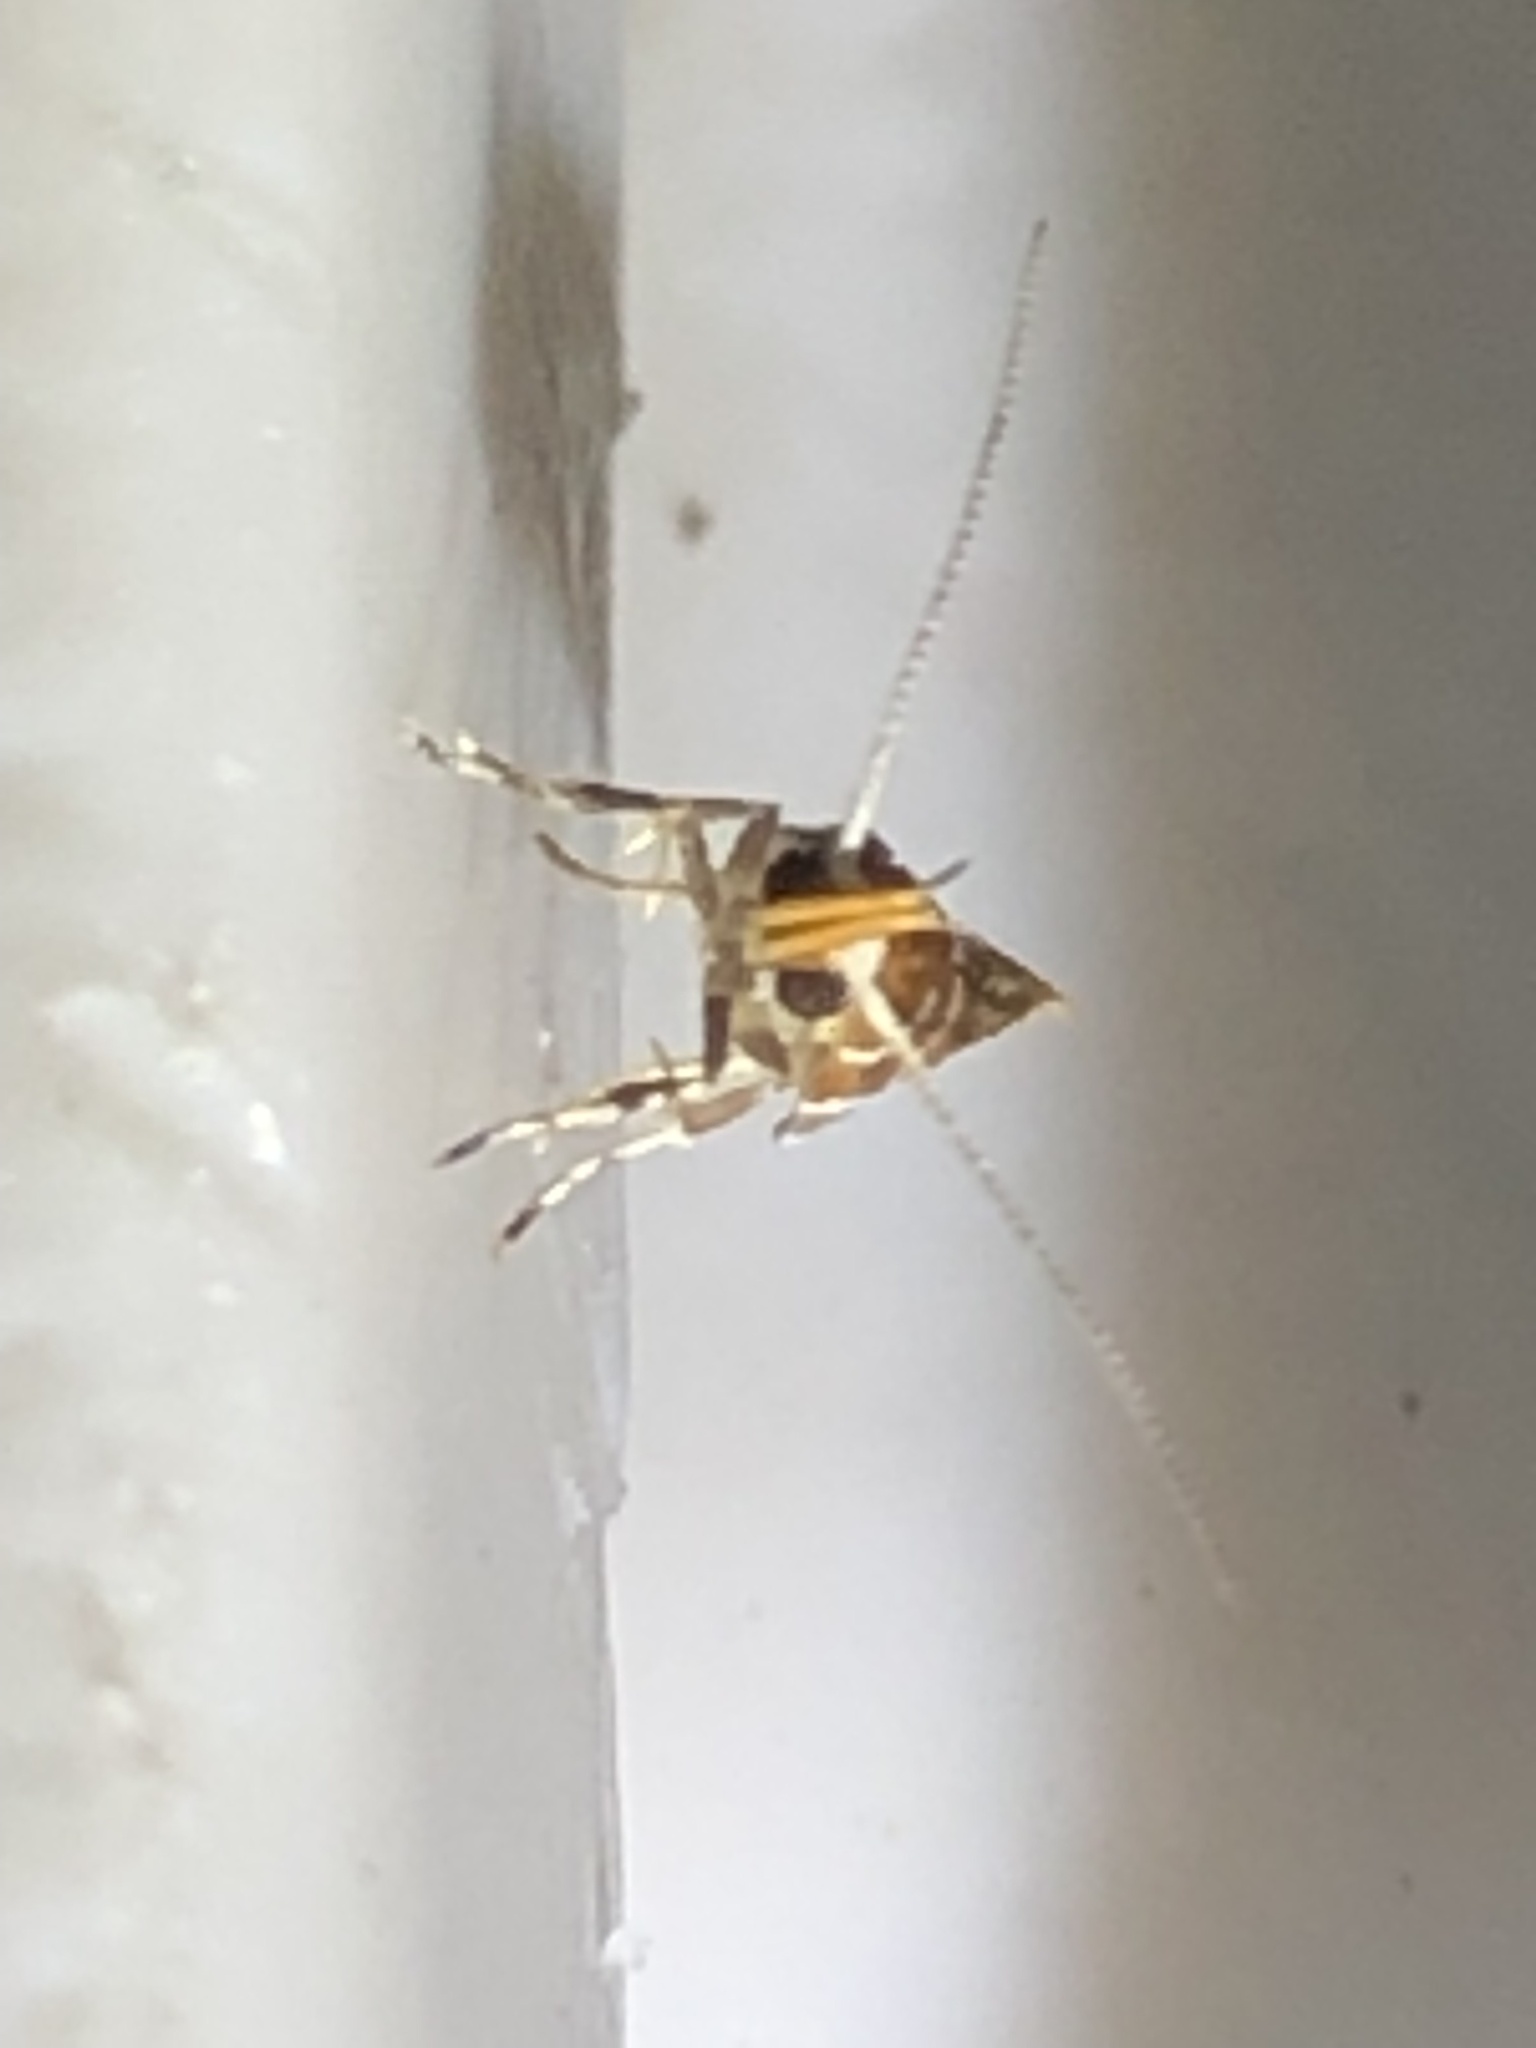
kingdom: Animalia
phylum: Arthropoda
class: Insecta
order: Lepidoptera
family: Oecophoridae
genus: Promalactis
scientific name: Promalactis suzukiella
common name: Moth
